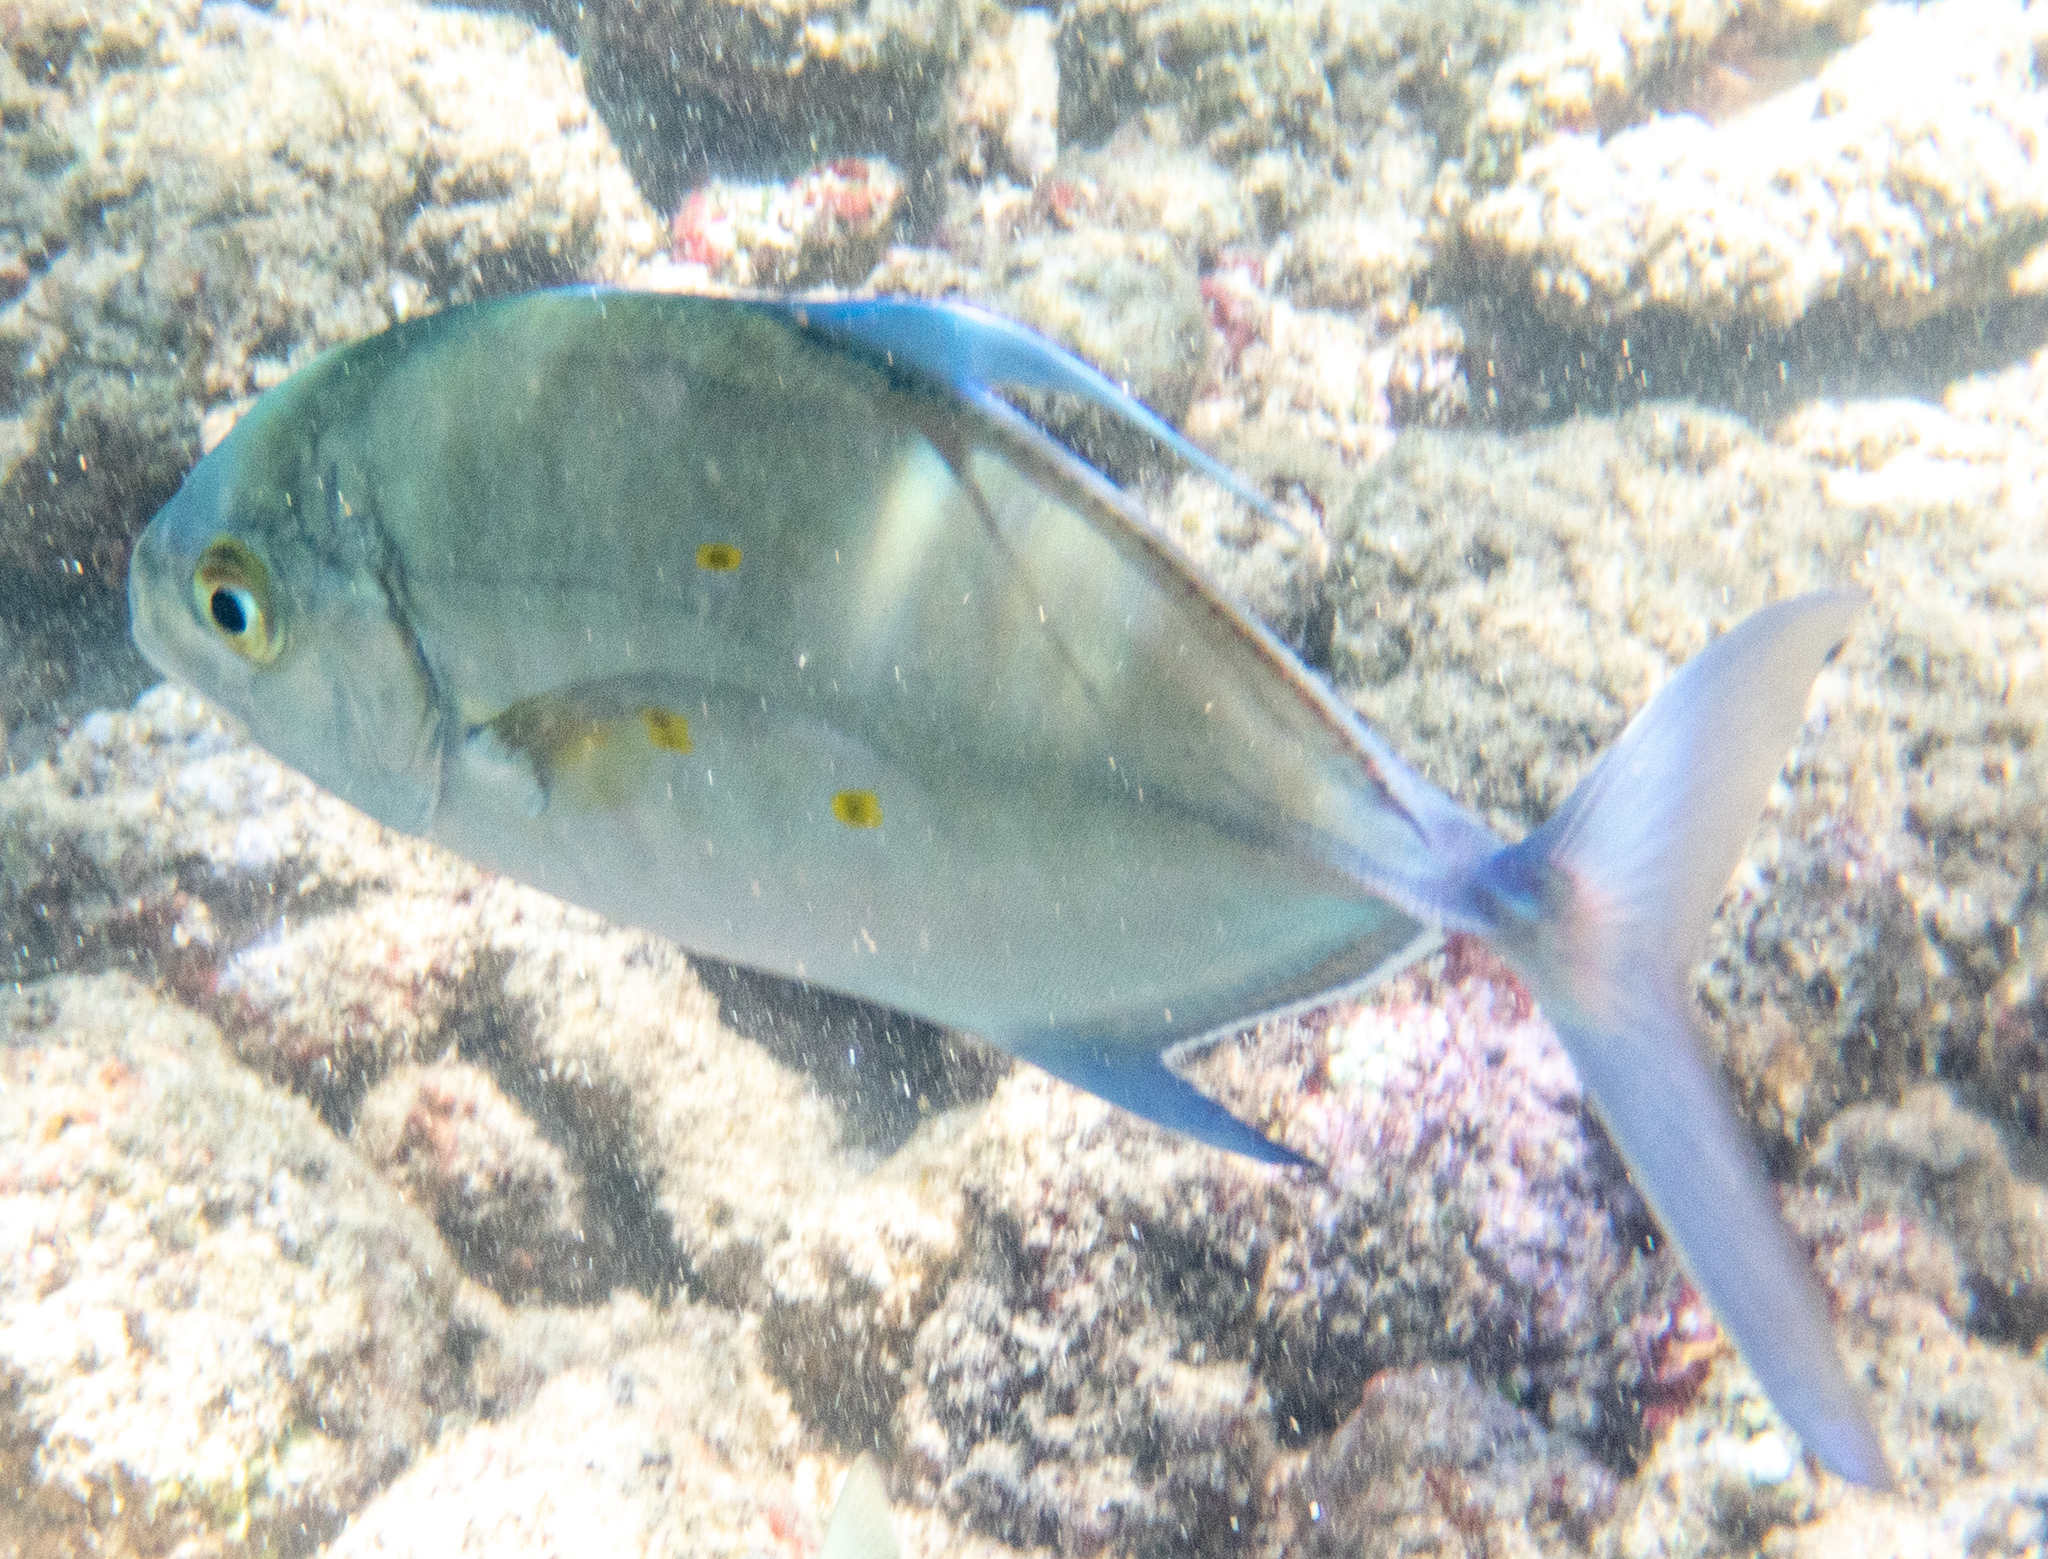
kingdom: Animalia
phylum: Chordata
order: Perciformes
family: Carangidae
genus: Carangoides
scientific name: Carangoides orthogrammus
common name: Island trevally
